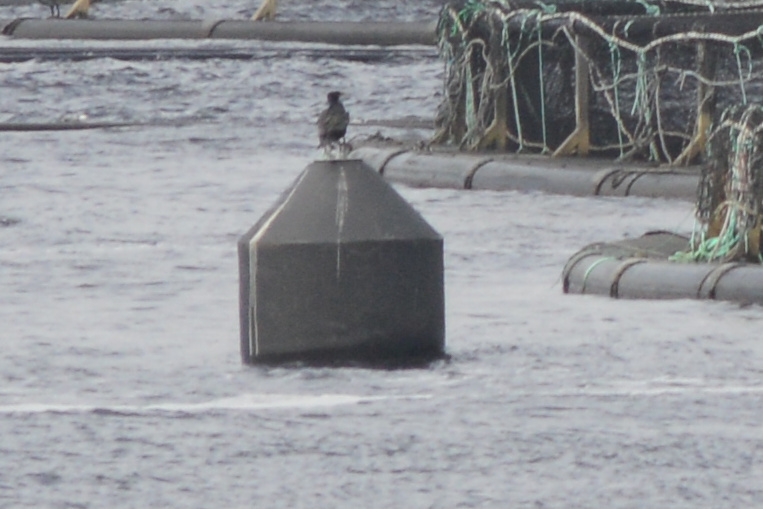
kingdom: Animalia
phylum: Chordata
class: Aves
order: Suliformes
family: Phalacrocoracidae
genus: Phalacrocorax
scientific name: Phalacrocorax carbo
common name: Great cormorant
